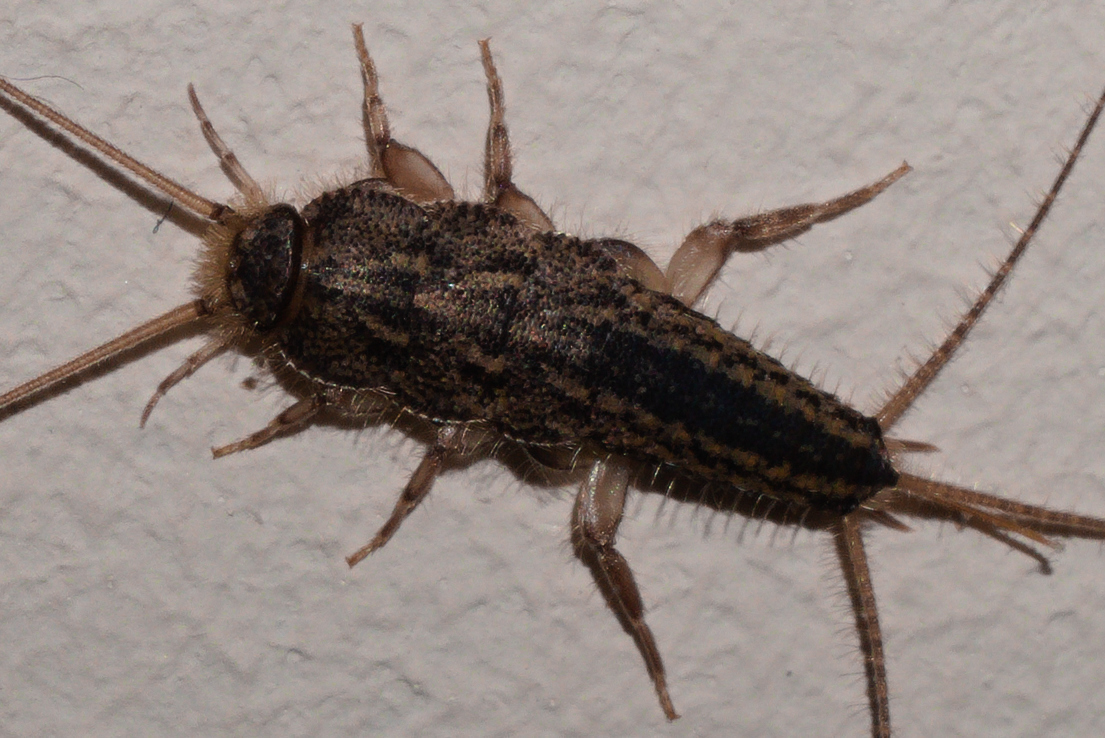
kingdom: Animalia
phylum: Arthropoda
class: Insecta
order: Zygentoma
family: Lepismatidae
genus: Ctenolepisma
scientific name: Ctenolepisma lineata
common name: Four-lined silverfish
